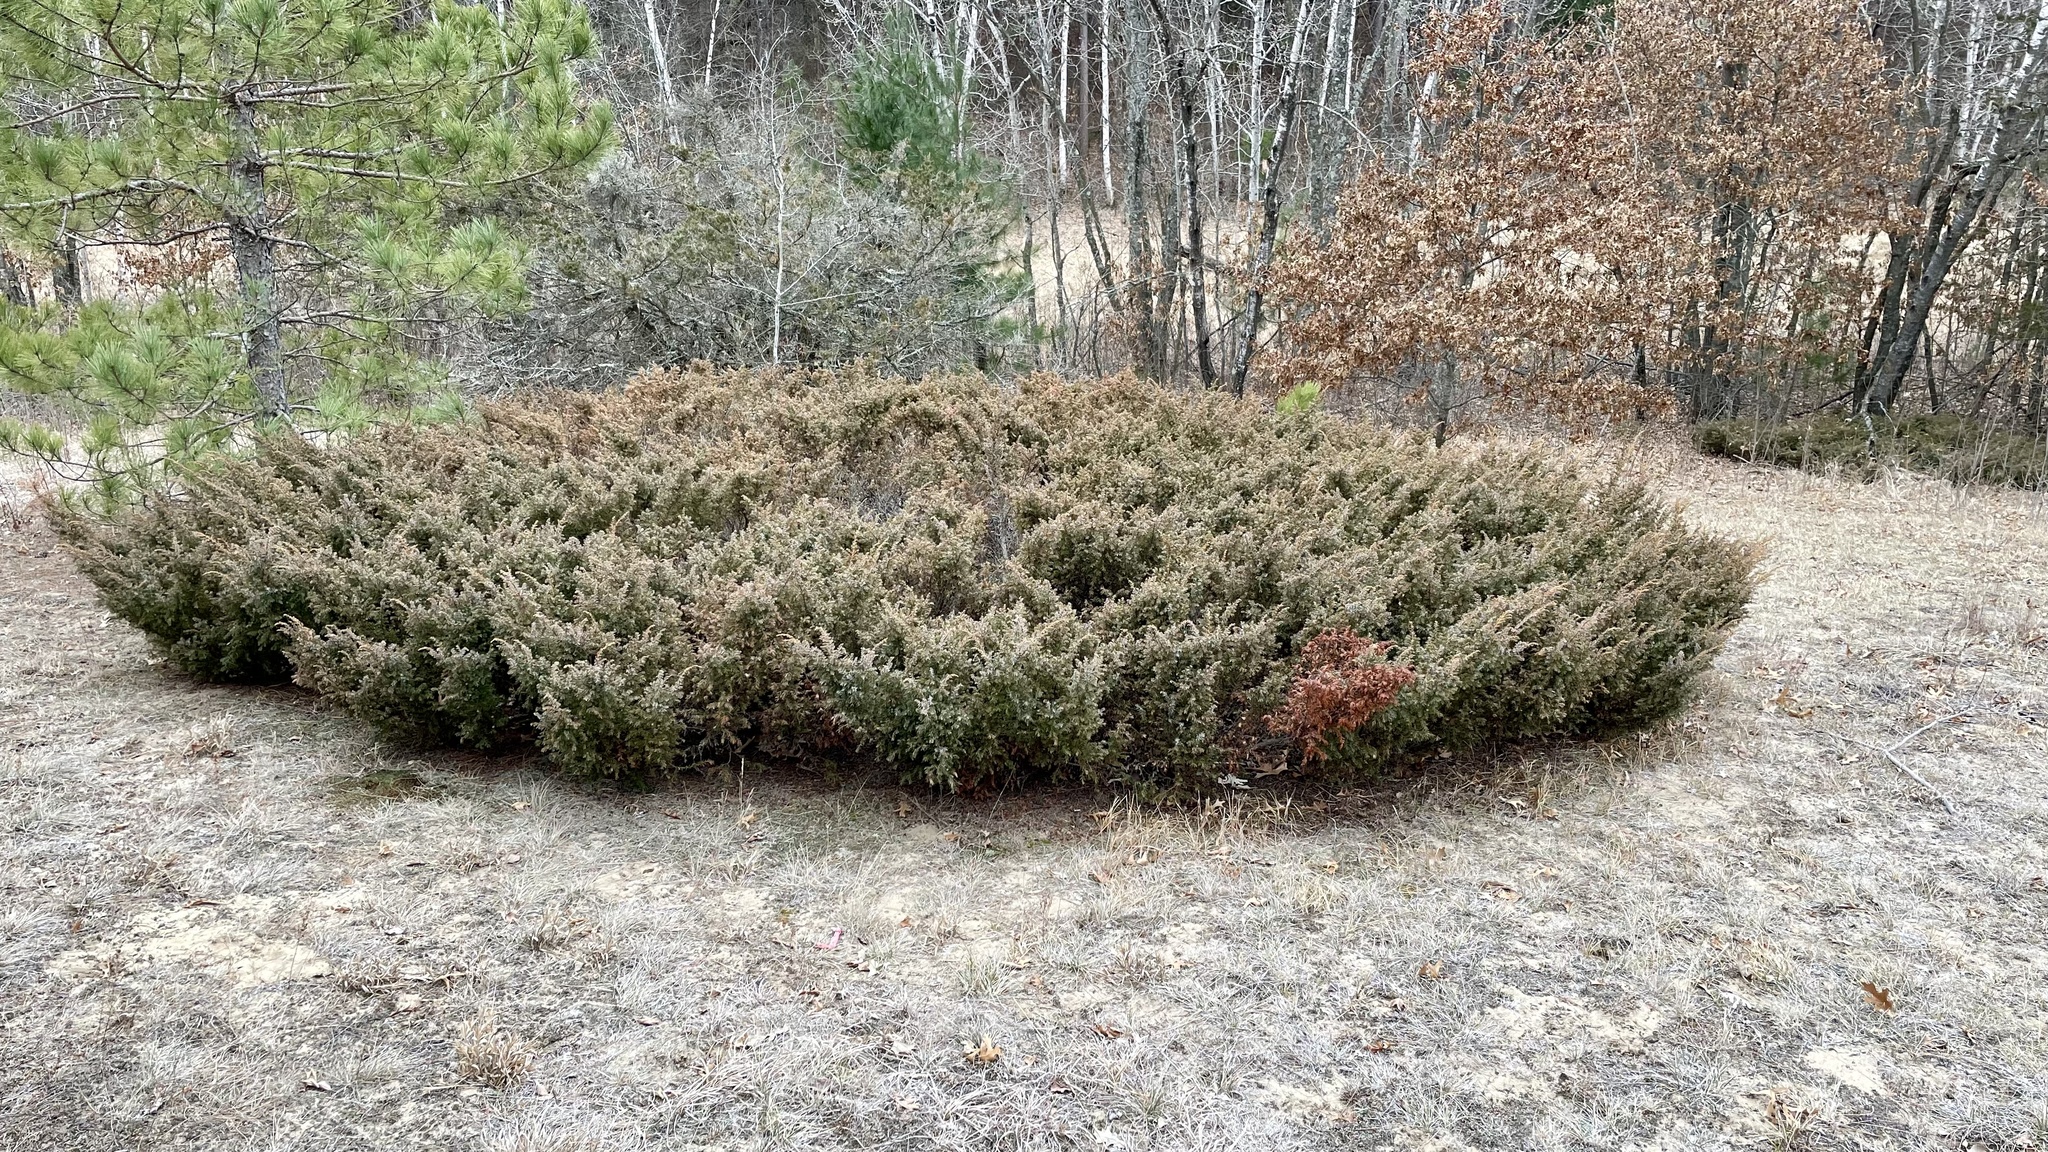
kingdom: Plantae
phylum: Tracheophyta
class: Pinopsida
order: Pinales
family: Cupressaceae
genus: Juniperus
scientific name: Juniperus communis
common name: Common juniper
